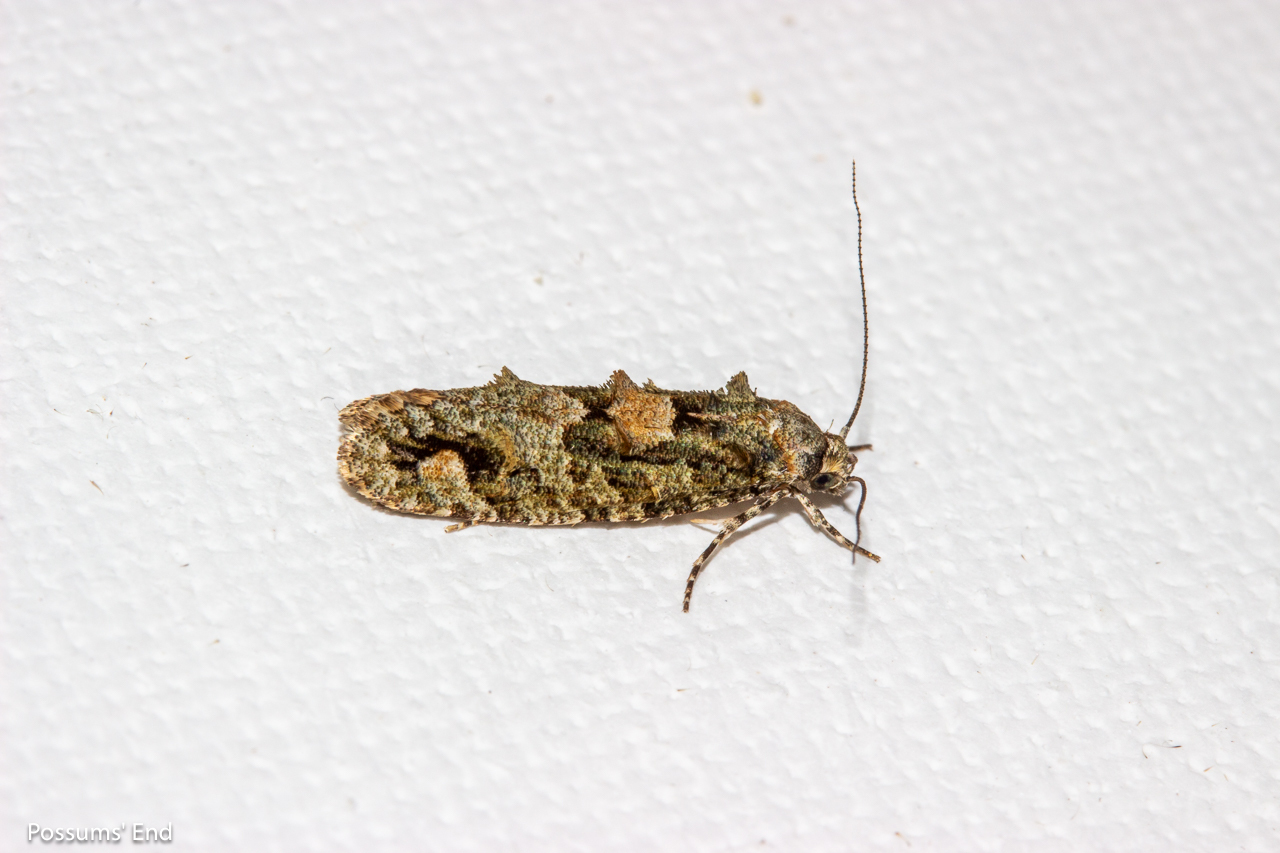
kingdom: Animalia
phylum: Arthropoda
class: Insecta
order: Lepidoptera
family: Tineidae
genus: Lysiphragma
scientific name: Lysiphragma howesii
